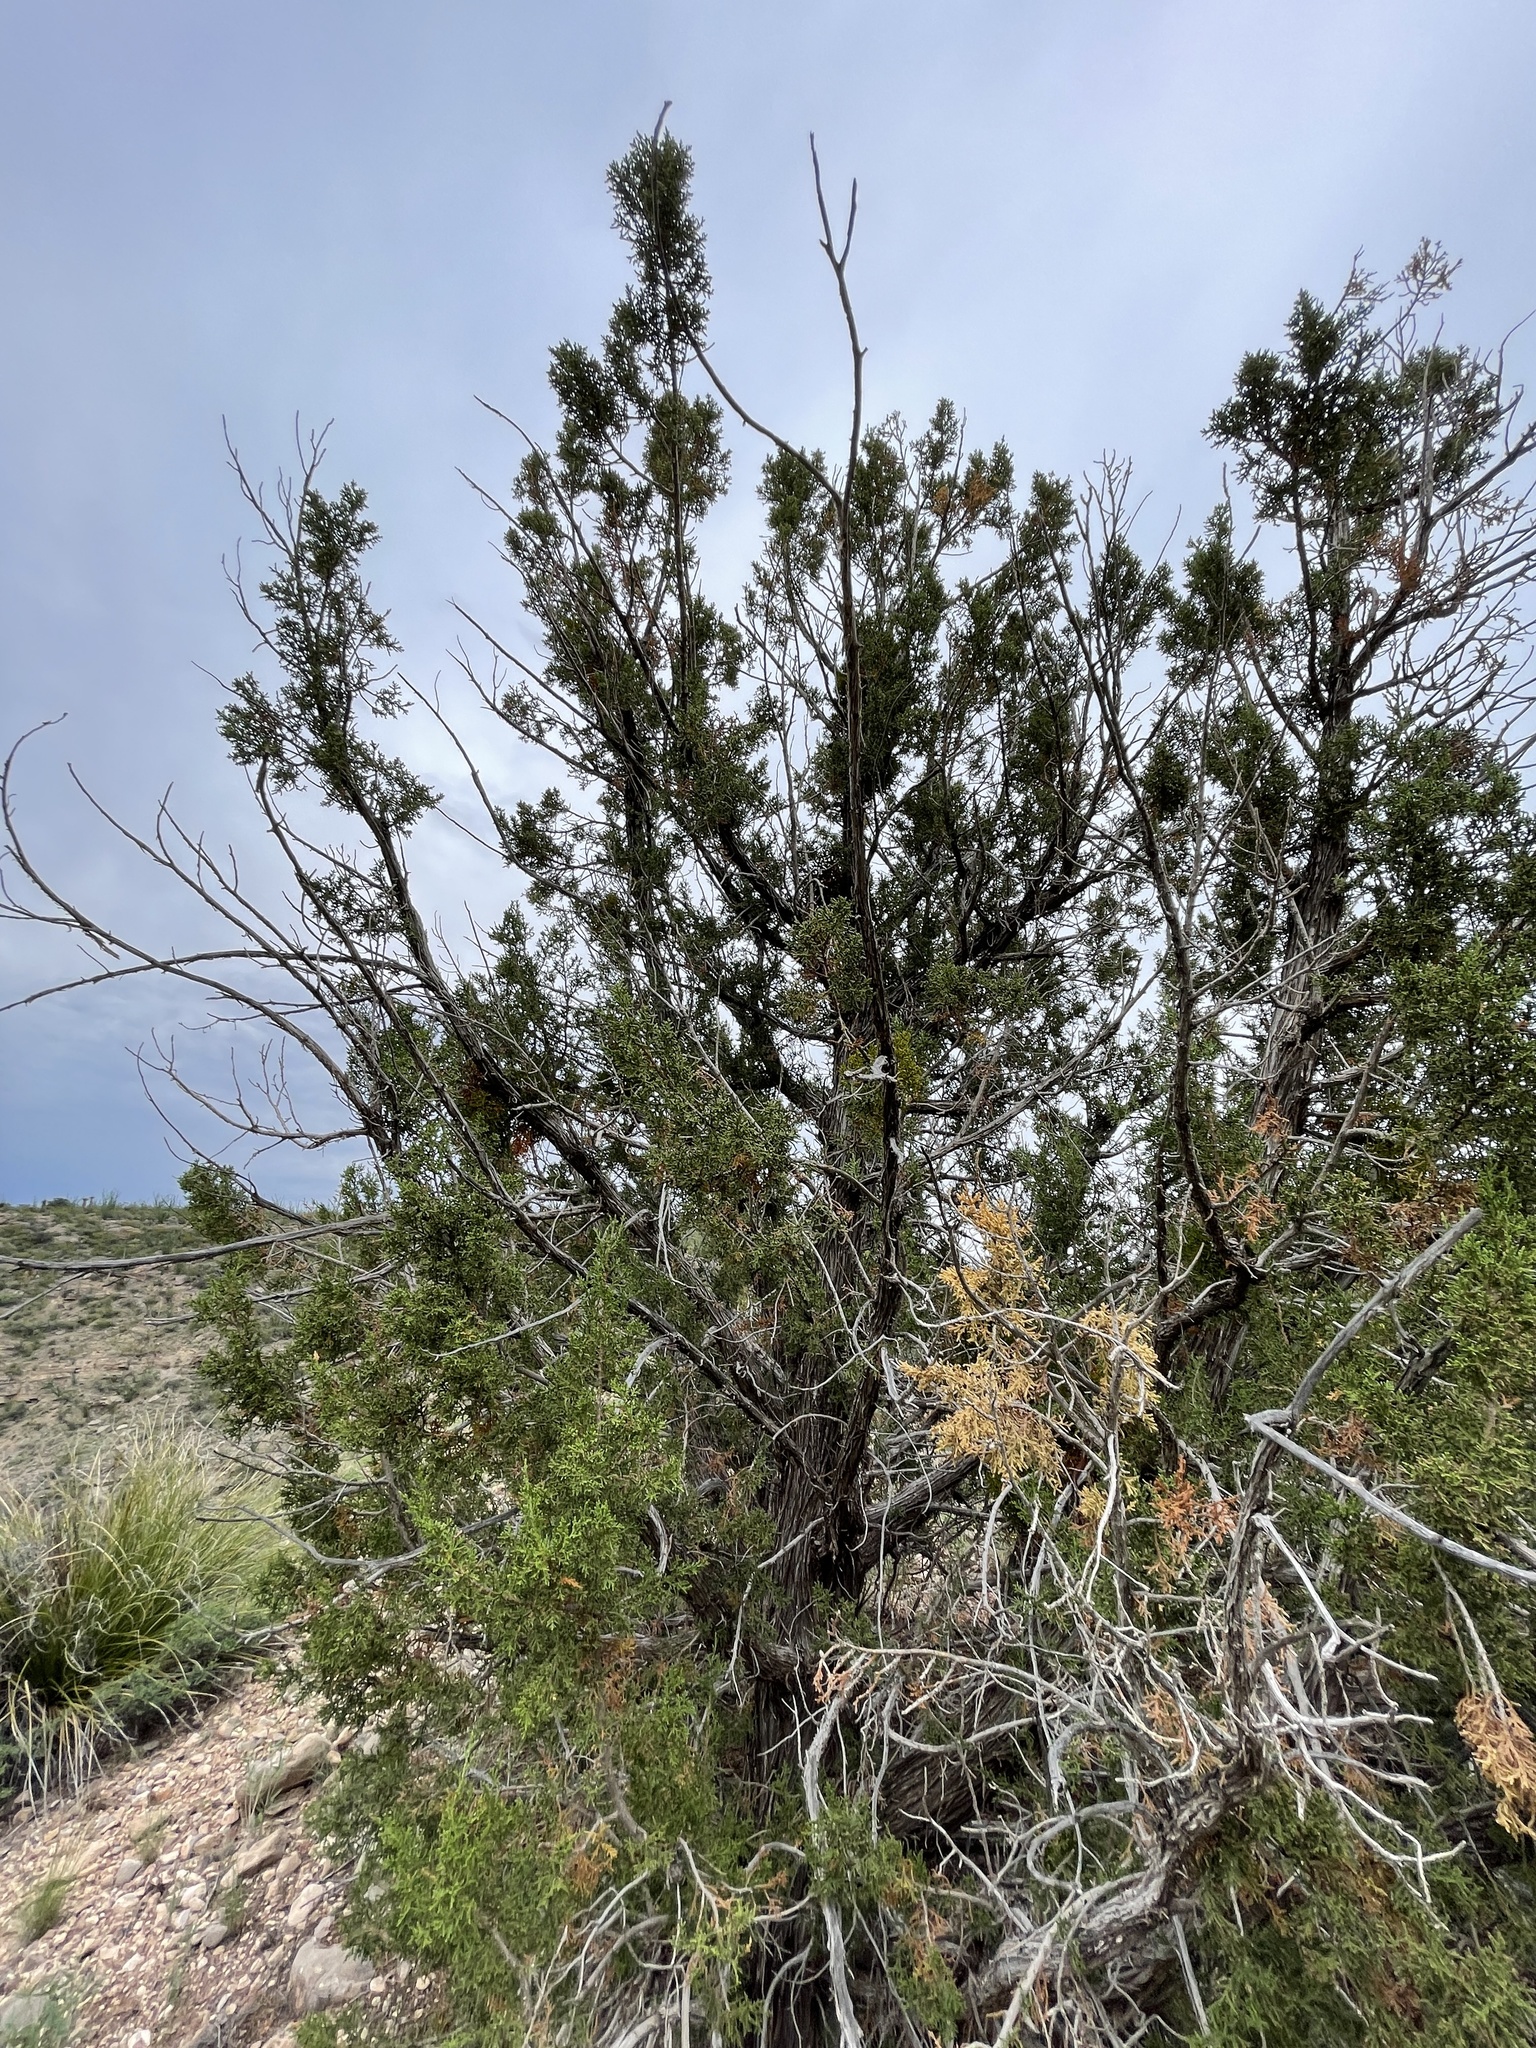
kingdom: Plantae
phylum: Tracheophyta
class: Pinopsida
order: Pinales
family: Cupressaceae
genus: Juniperus
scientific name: Juniperus monosperma
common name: One-seed juniper
